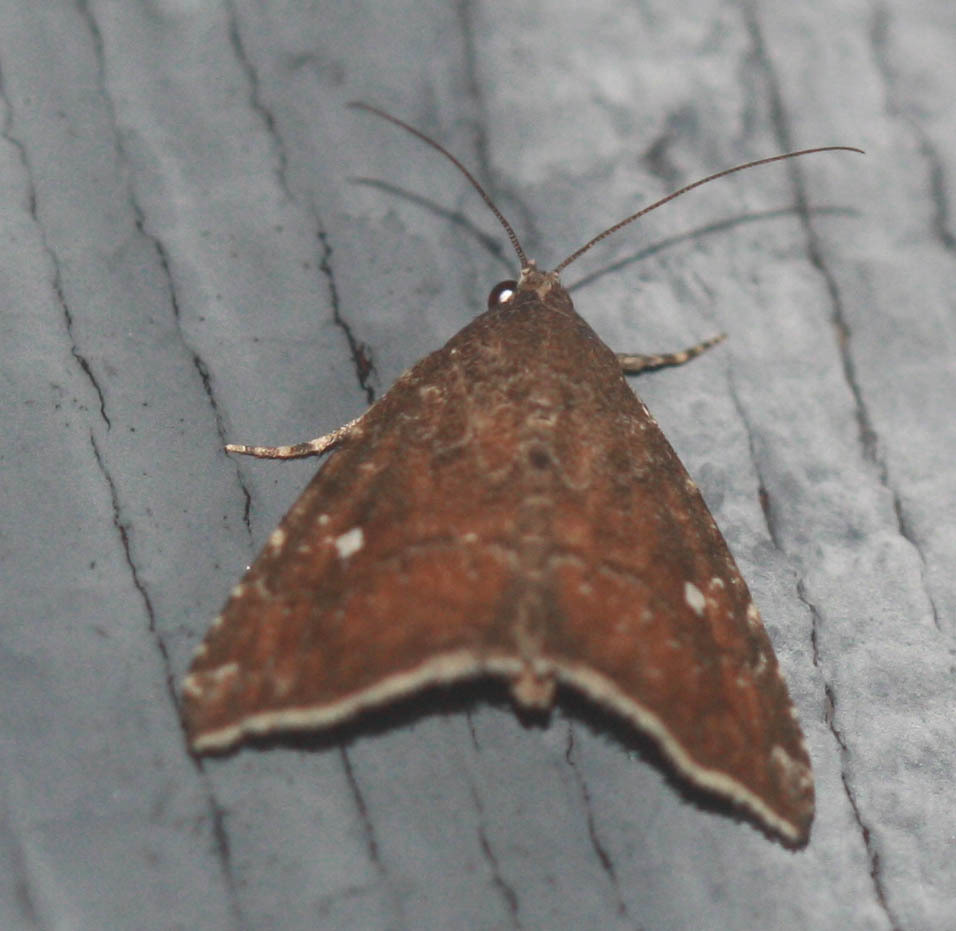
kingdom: Animalia
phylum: Arthropoda
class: Insecta
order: Lepidoptera
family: Noctuidae
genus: Amyna
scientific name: Amyna bullula
